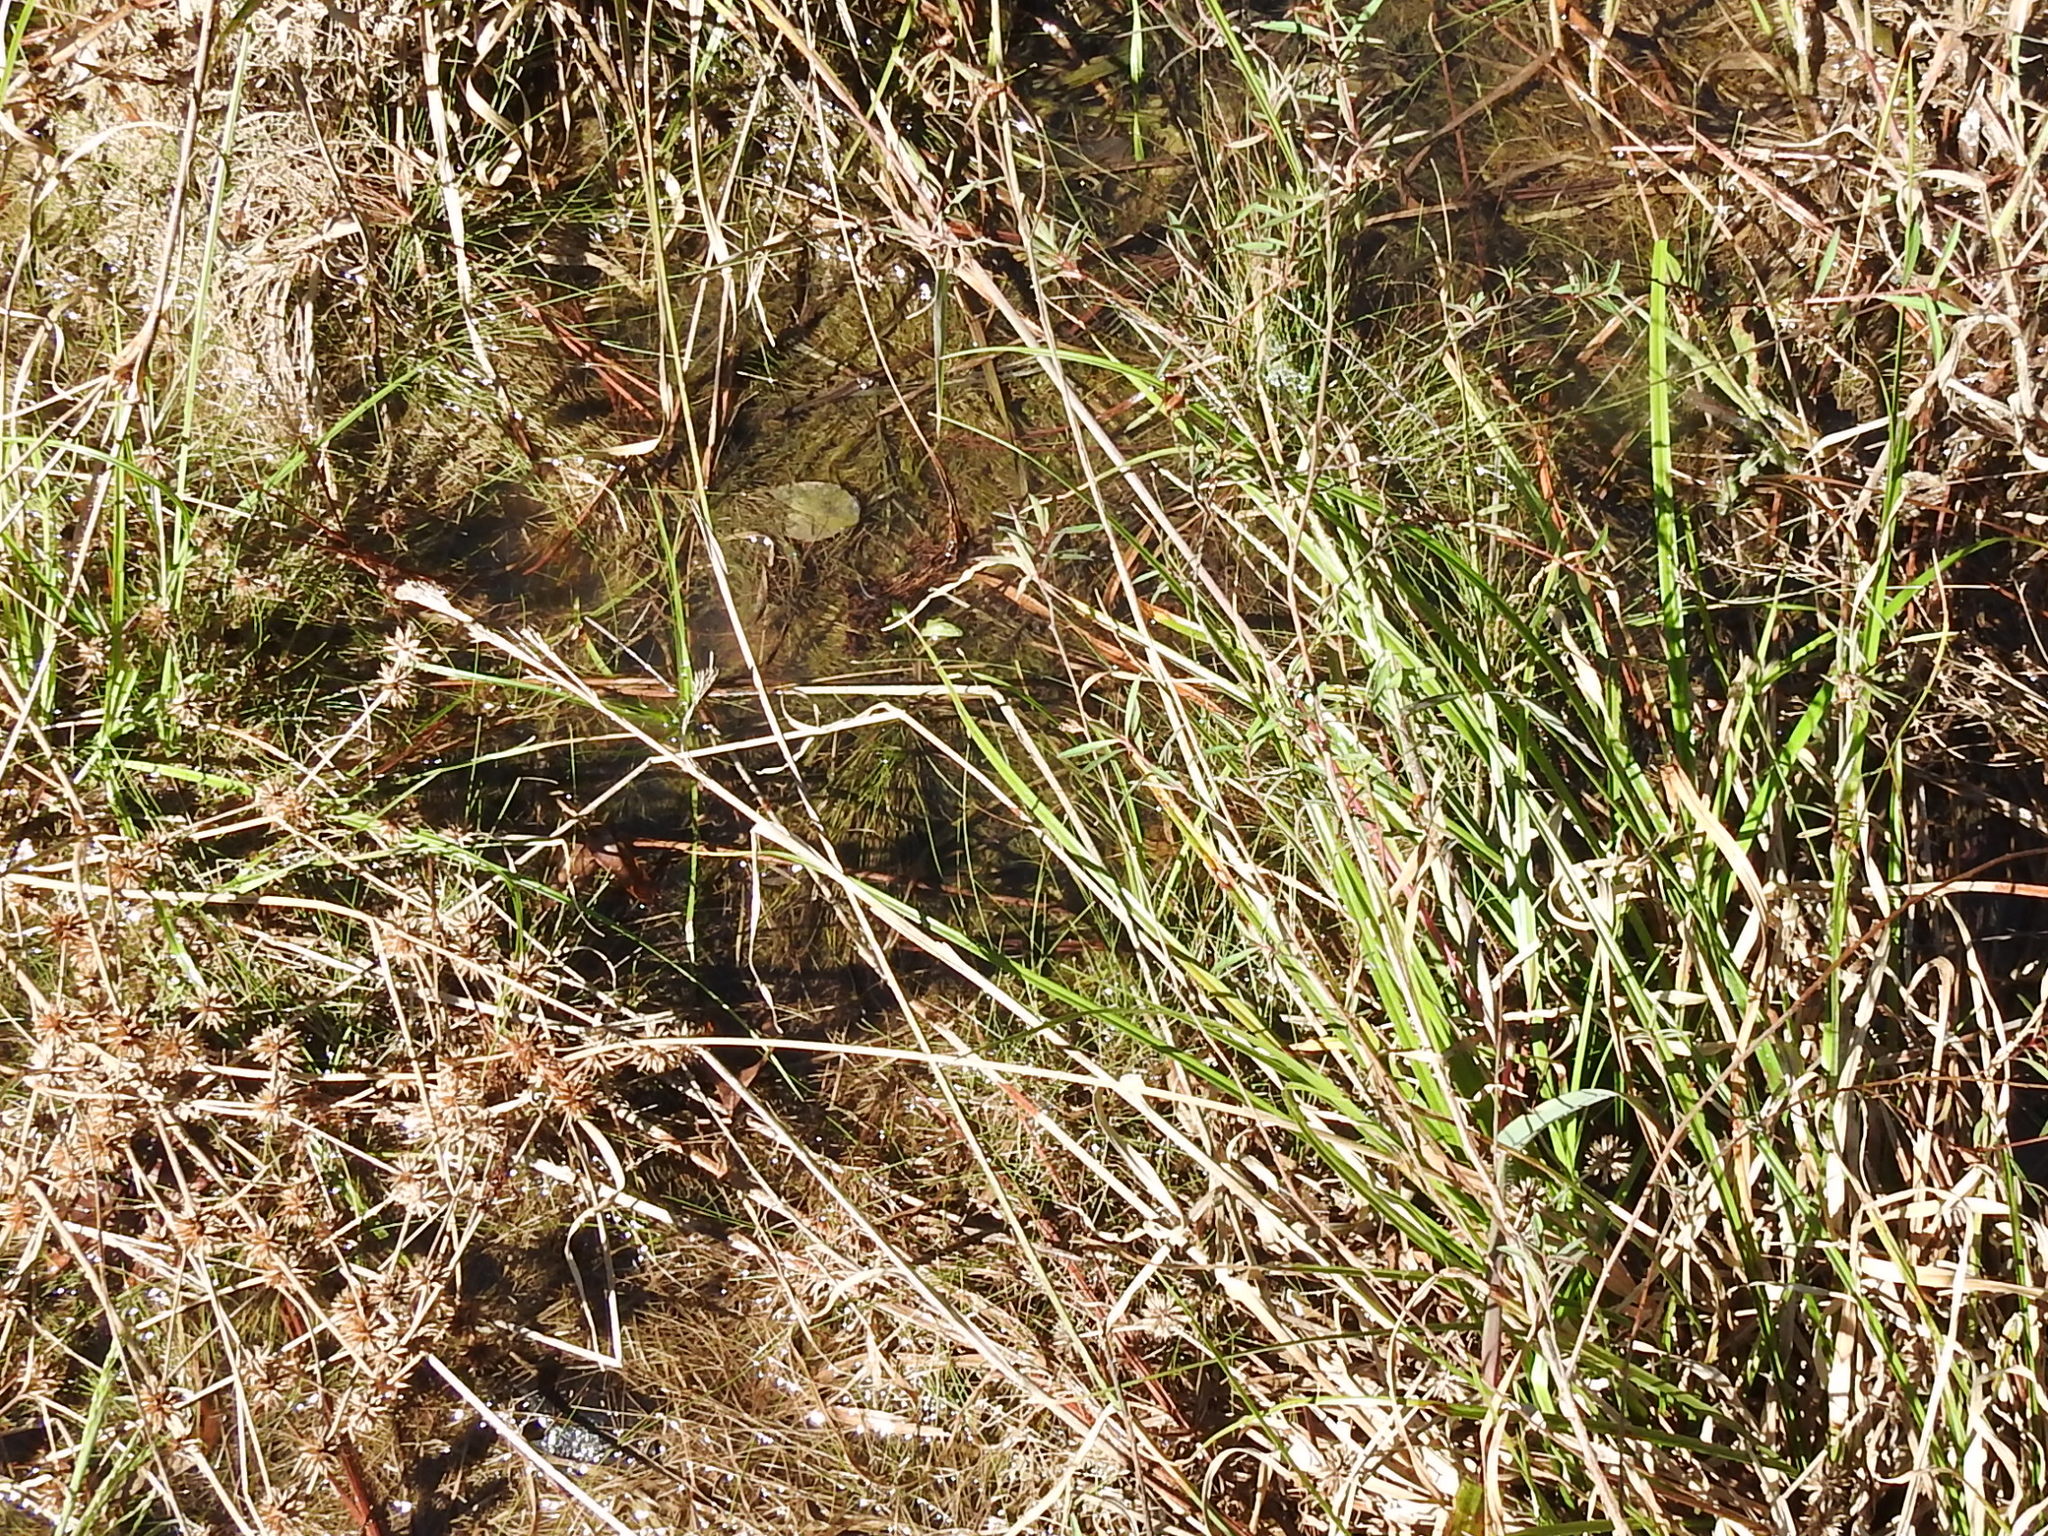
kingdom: Plantae
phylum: Tracheophyta
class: Magnoliopsida
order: Myrtales
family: Onagraceae
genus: Ludwigia
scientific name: Ludwigia linearis
